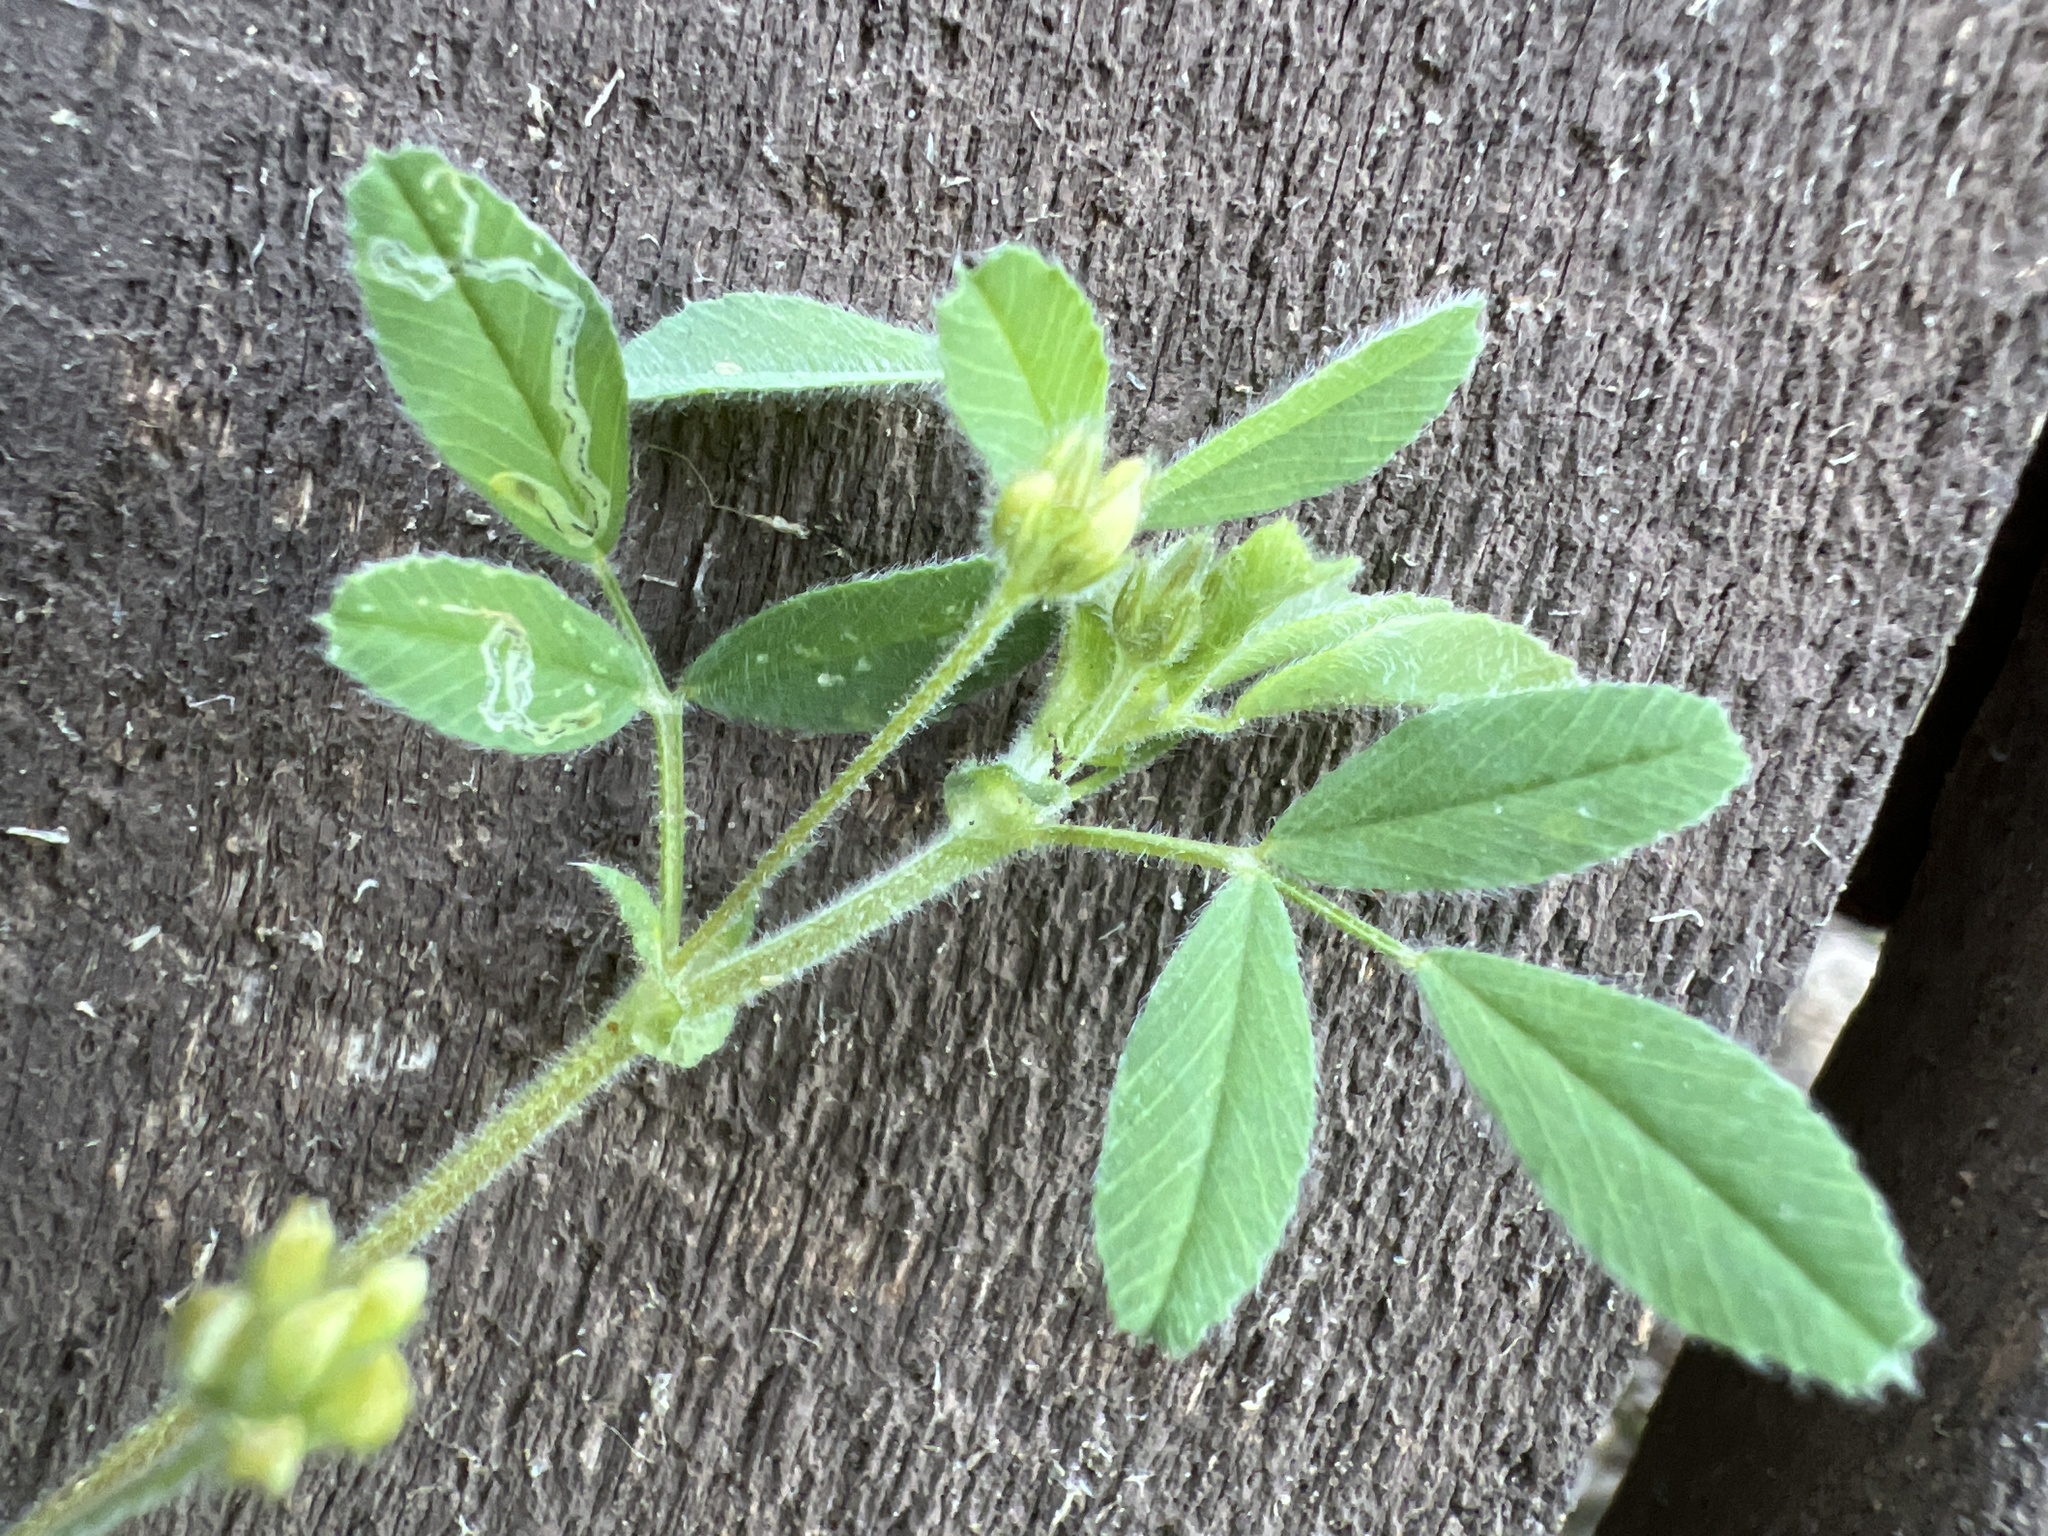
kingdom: Plantae
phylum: Tracheophyta
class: Magnoliopsida
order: Fabales
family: Fabaceae
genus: Medicago
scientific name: Medicago minima
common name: Little bur-clover
